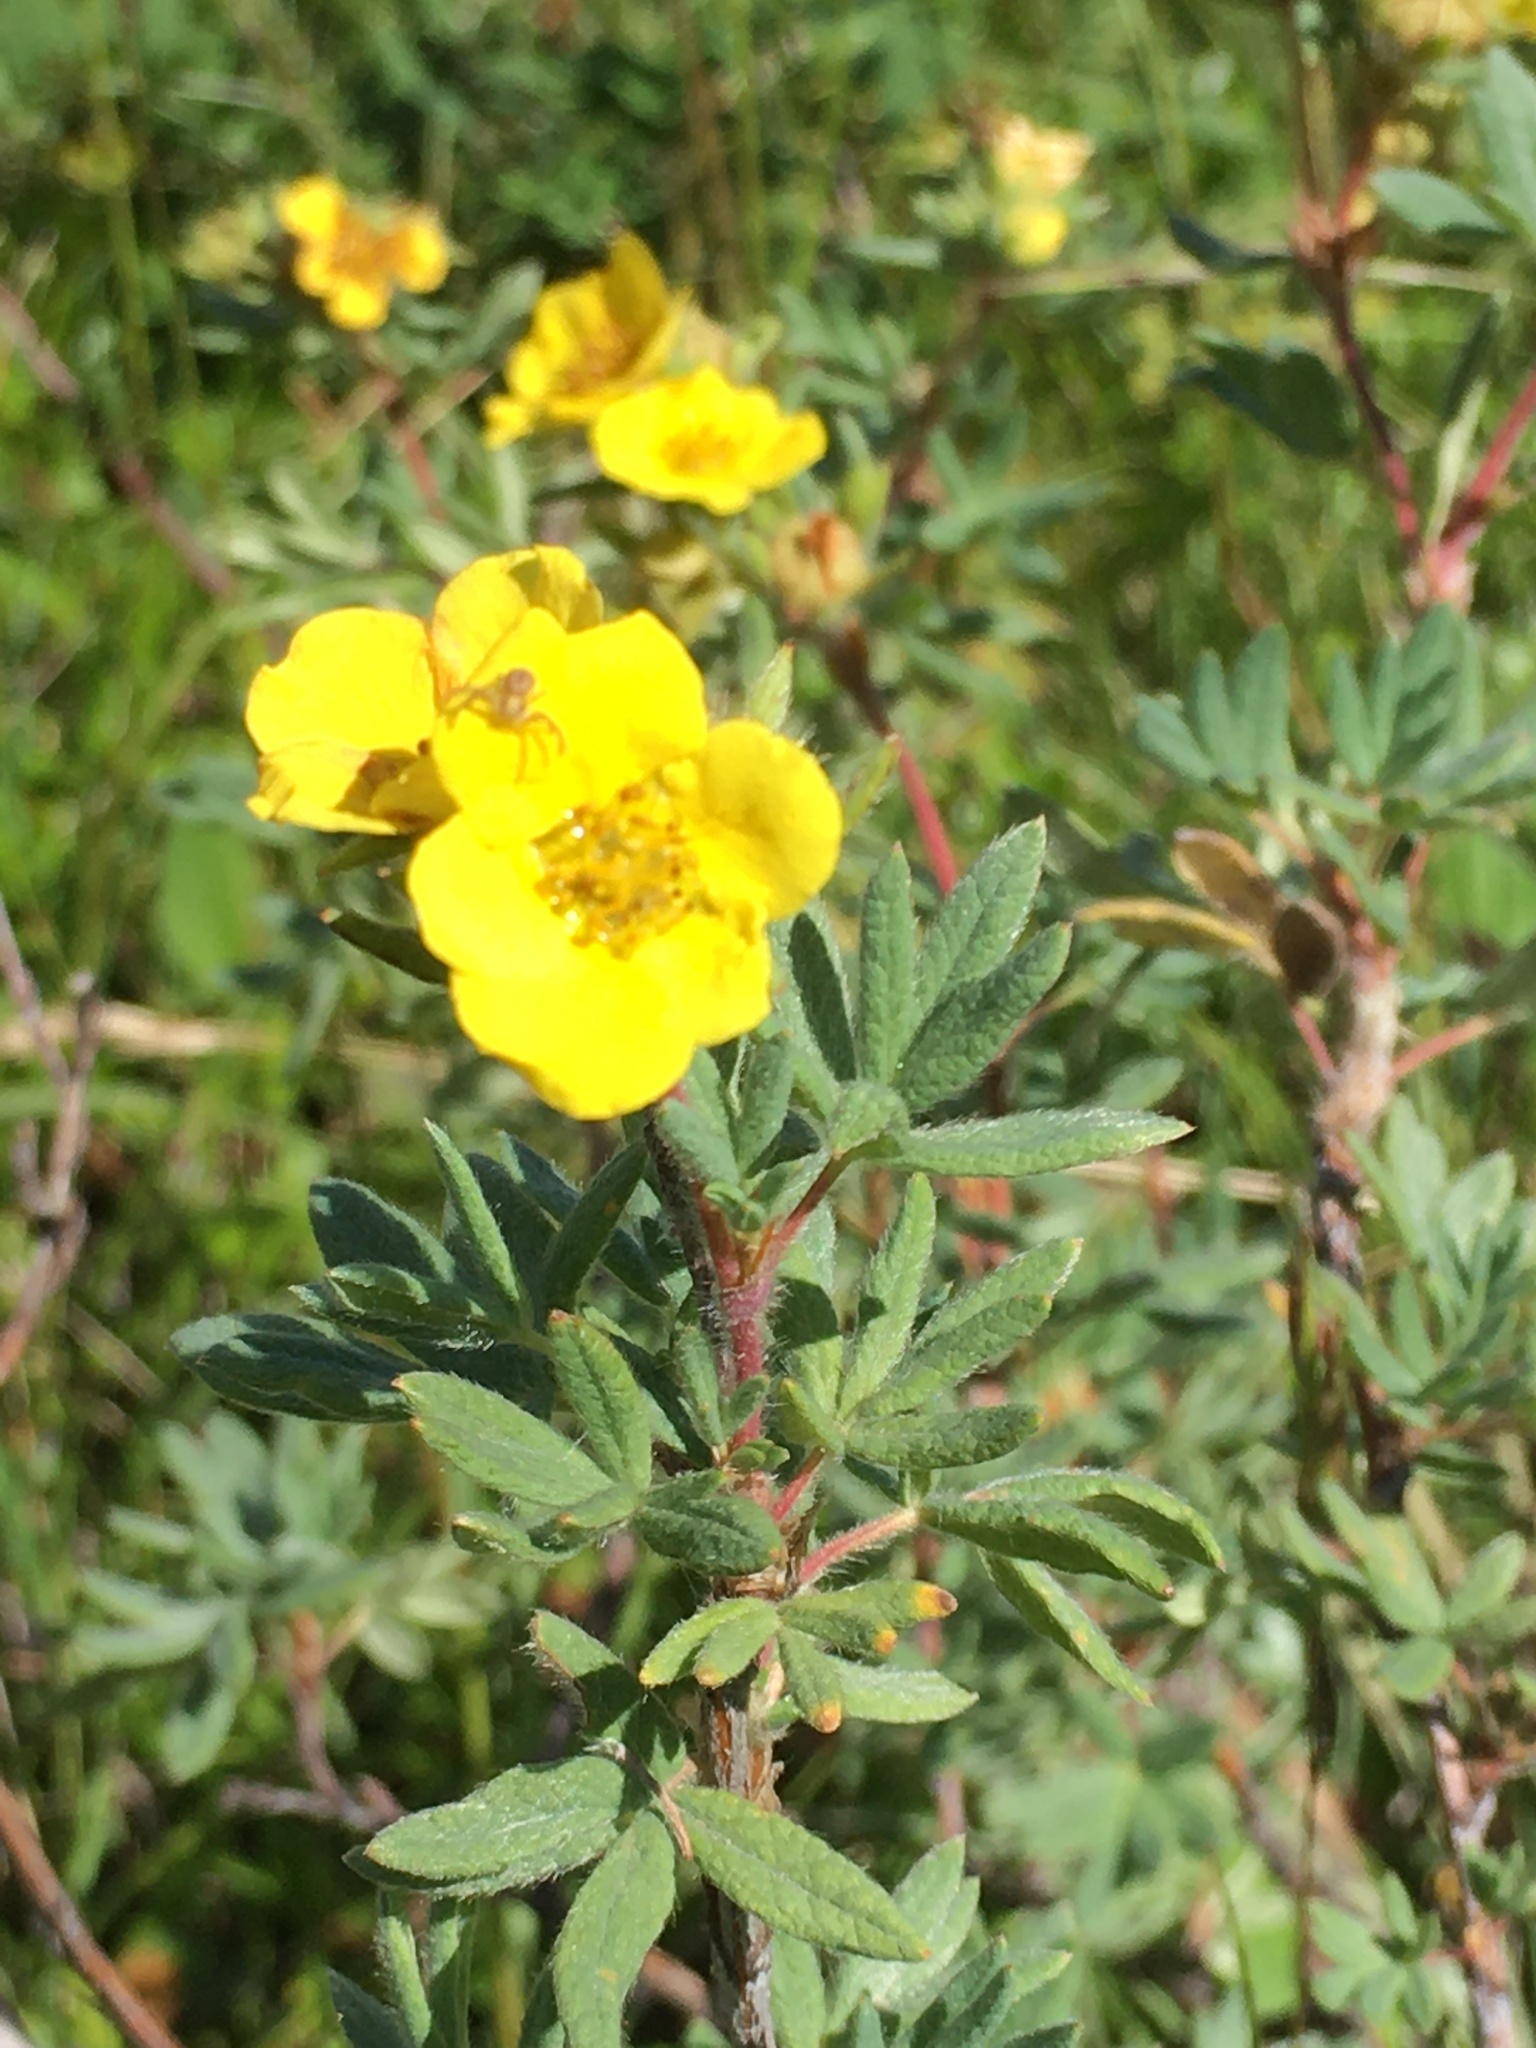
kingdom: Plantae
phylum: Tracheophyta
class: Magnoliopsida
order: Rosales
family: Rosaceae
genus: Dasiphora
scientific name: Dasiphora fruticosa
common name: Shrubby cinquefoil
